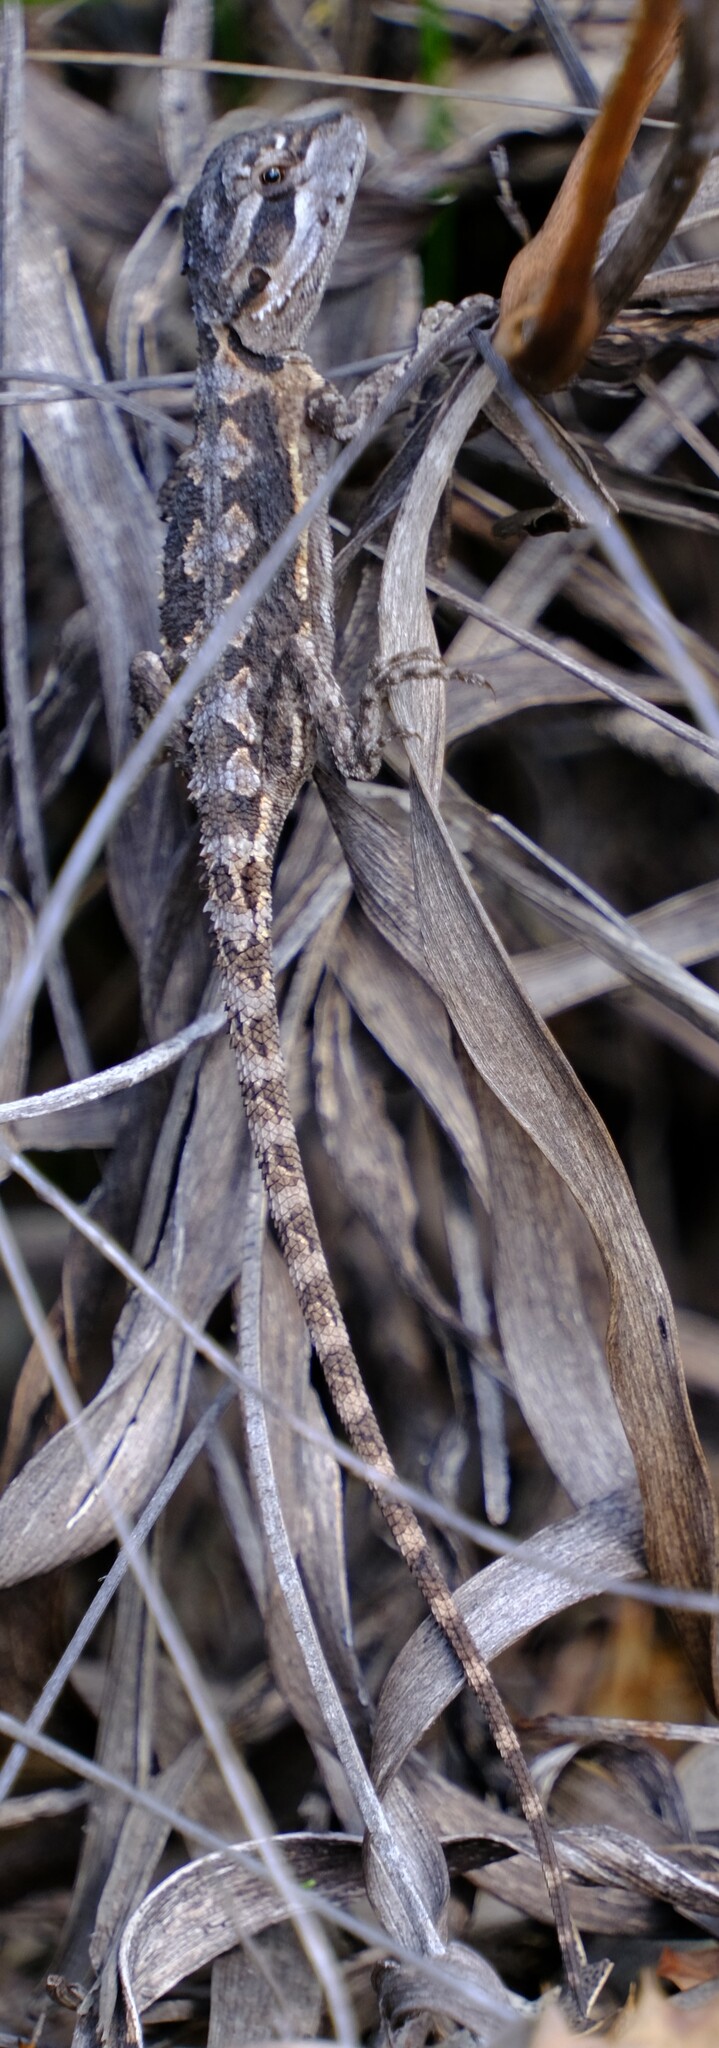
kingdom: Animalia
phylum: Chordata
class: Squamata
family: Agamidae
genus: Pogona
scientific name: Pogona minor
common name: Dwarf bearded dragon
